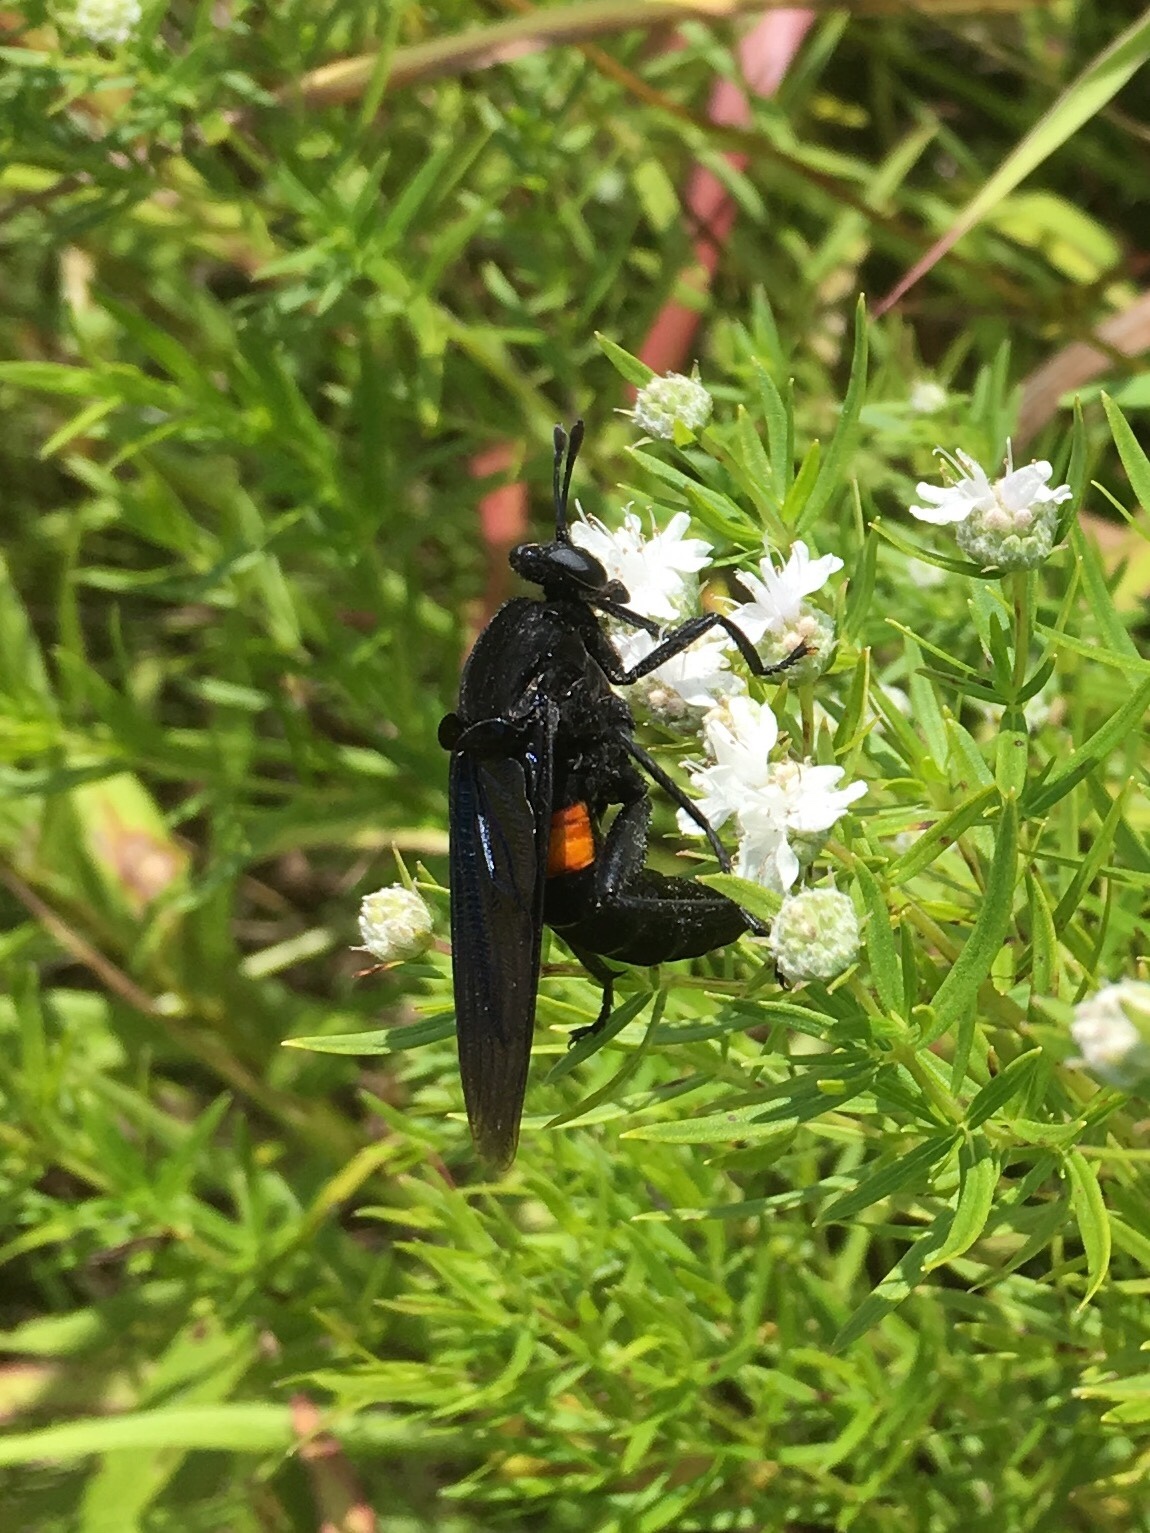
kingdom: Animalia
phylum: Arthropoda
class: Insecta
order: Diptera
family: Mydidae
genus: Mydas
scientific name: Mydas clavatus
